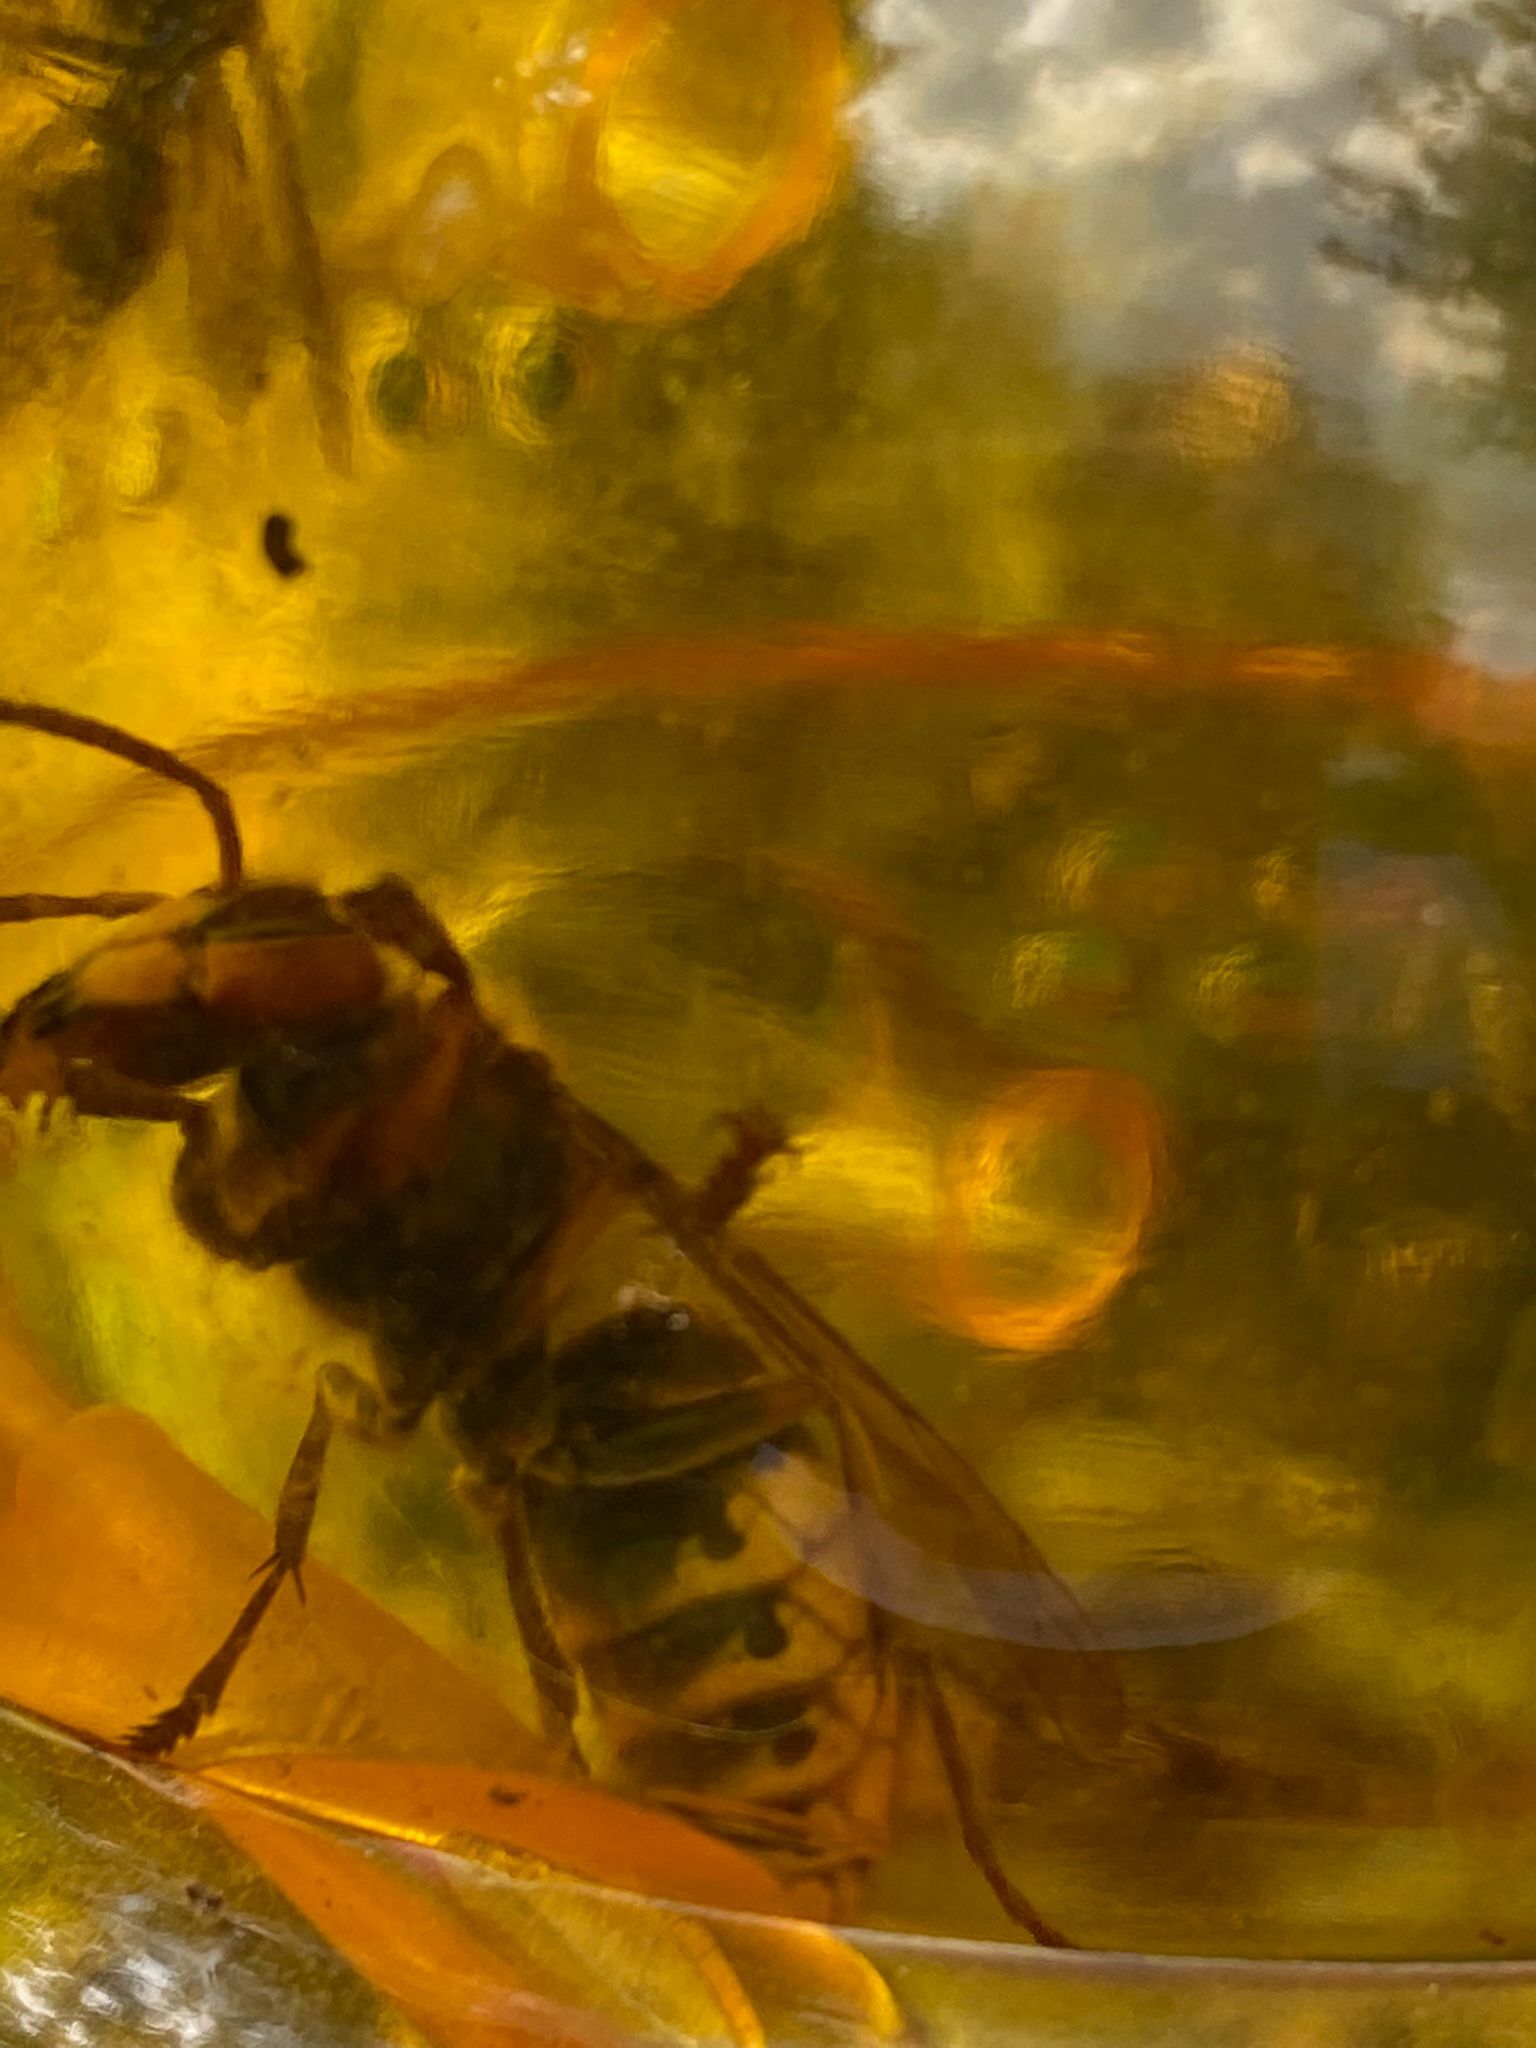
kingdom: Animalia
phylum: Arthropoda
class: Insecta
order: Hymenoptera
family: Vespidae
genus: Vespa
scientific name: Vespa crabro
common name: Hornet
